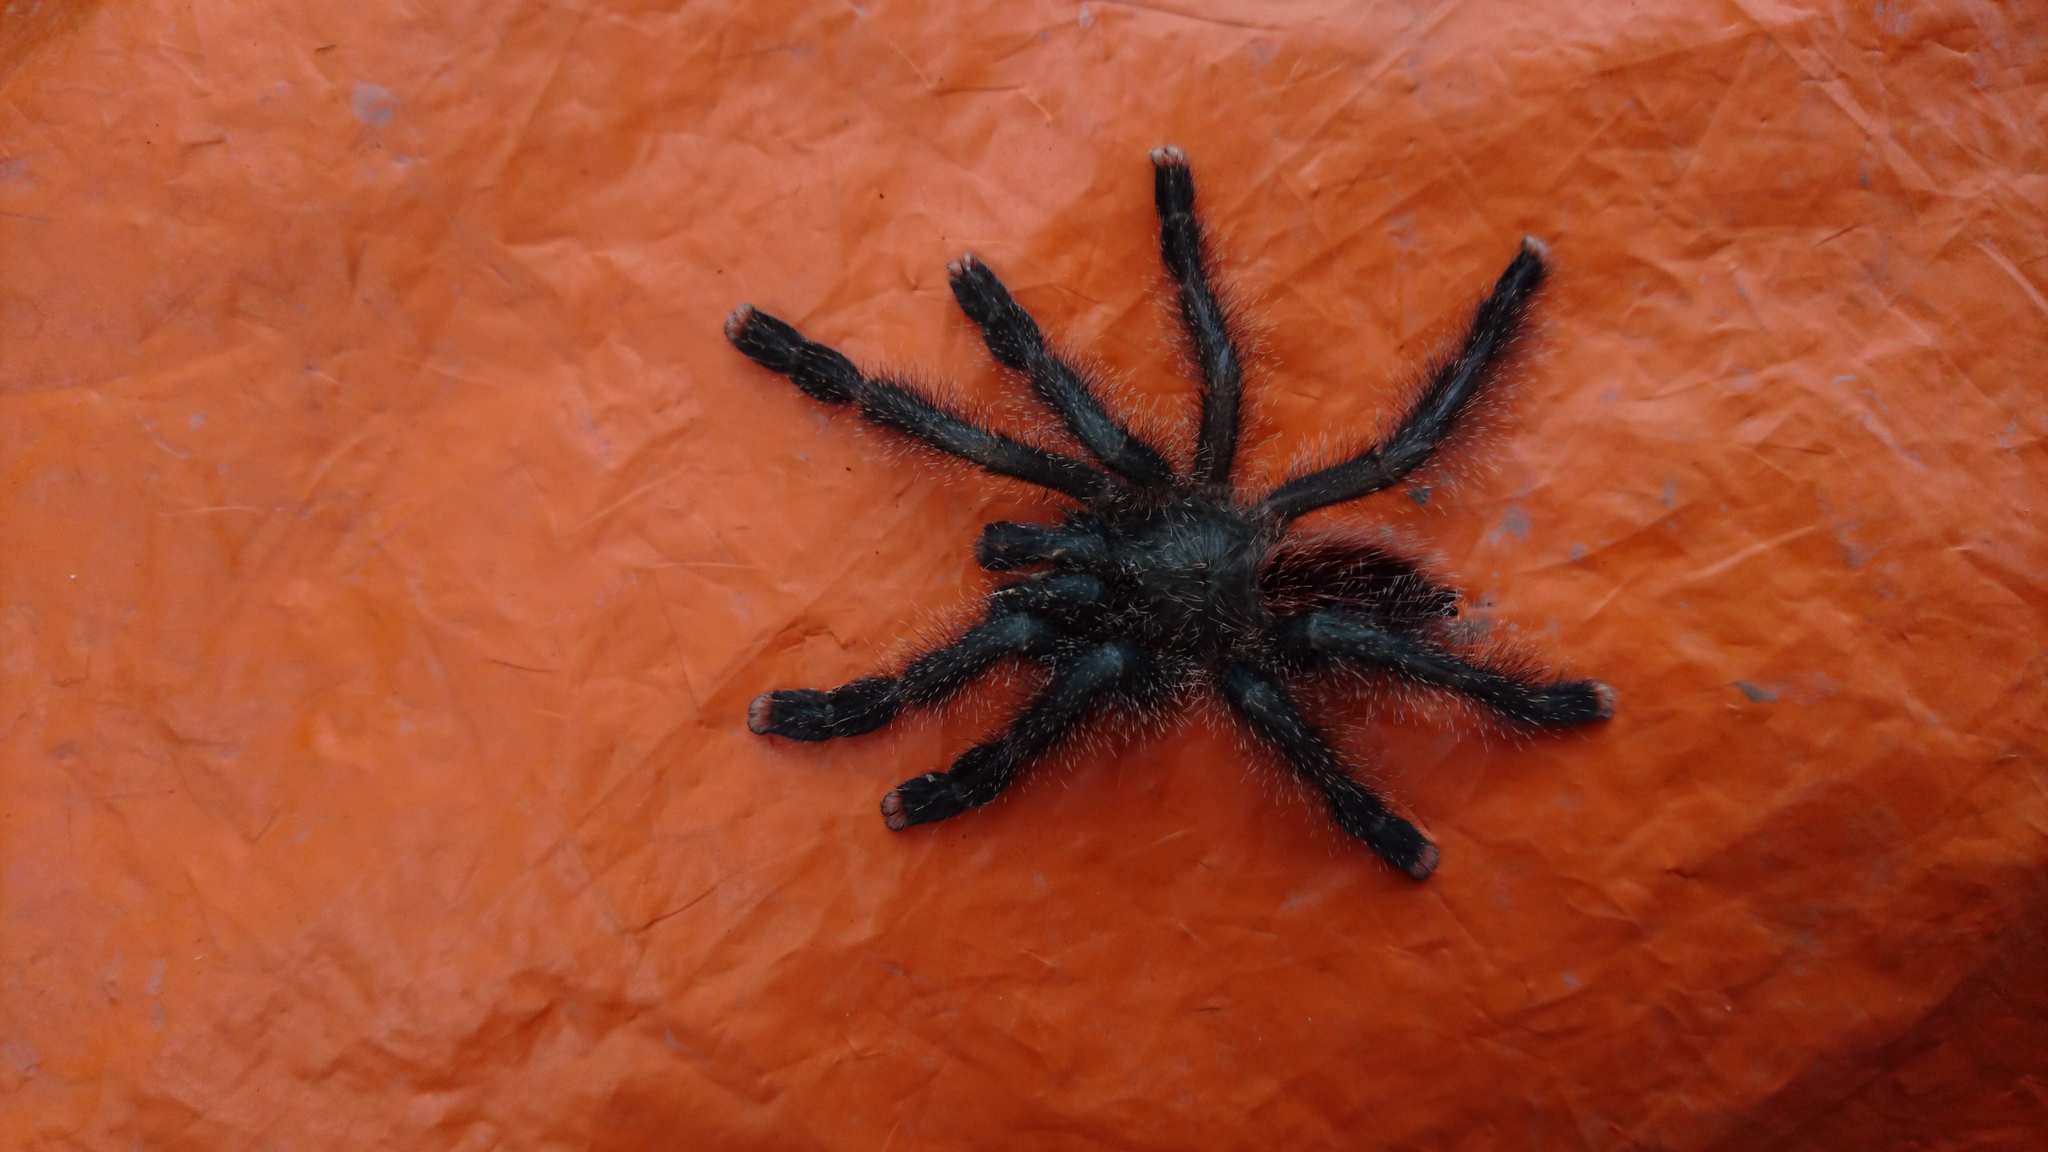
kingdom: Animalia
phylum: Arthropoda
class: Arachnida
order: Araneae
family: Theraphosidae
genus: Avicularia
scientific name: Avicularia juruensis
